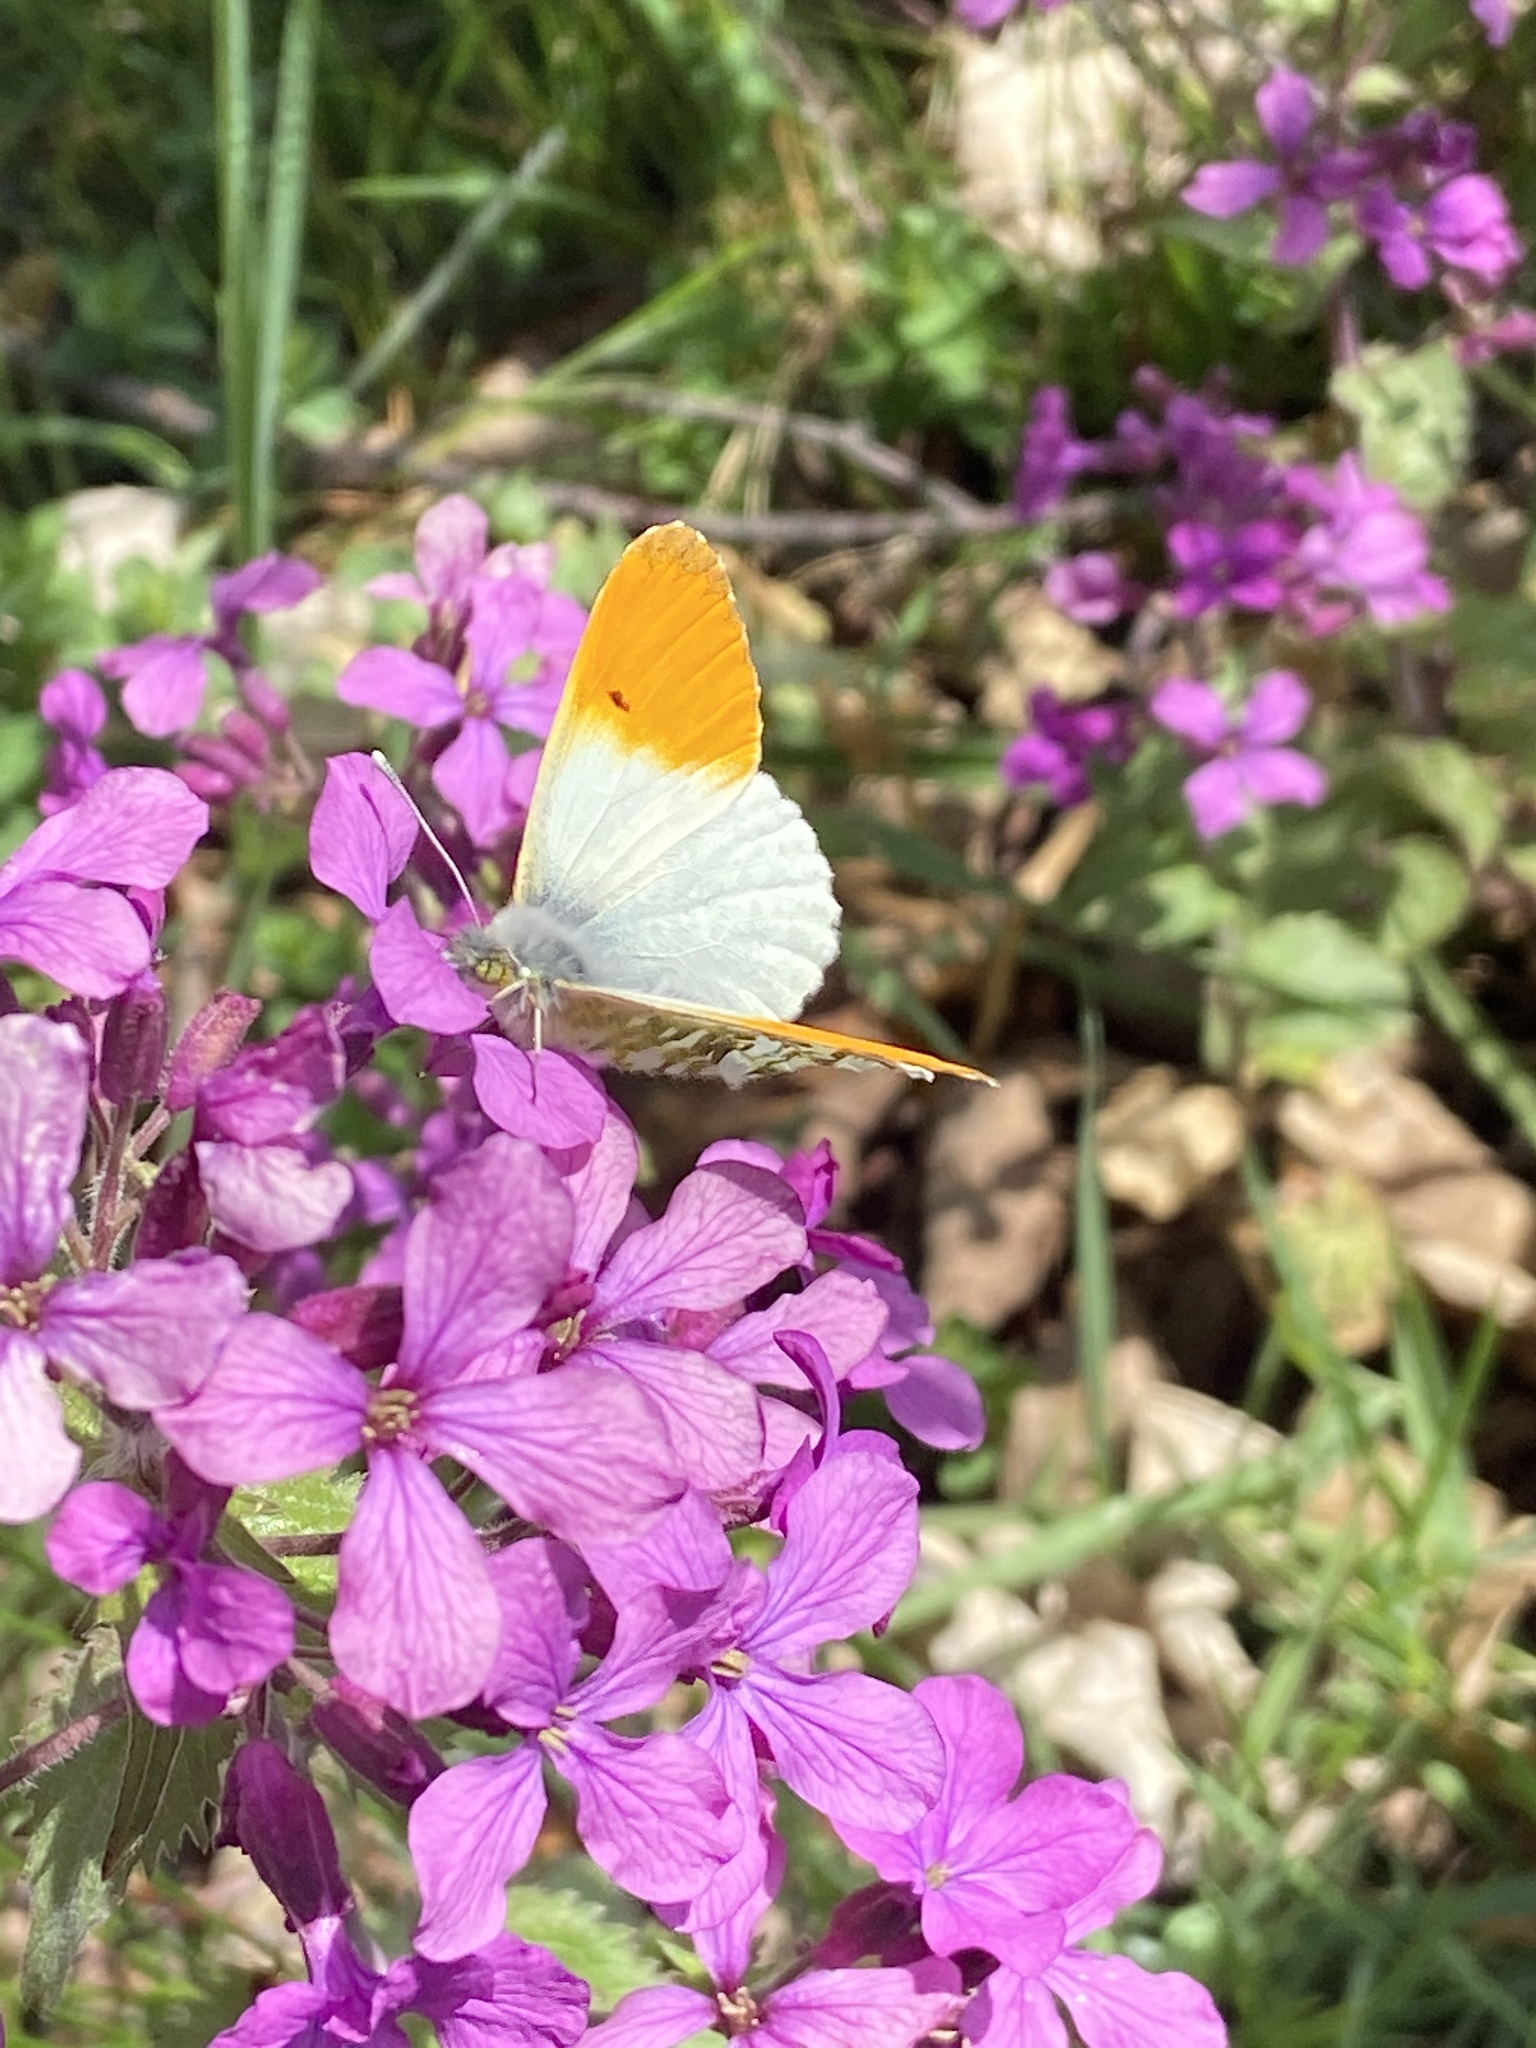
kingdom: Animalia
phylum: Arthropoda
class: Insecta
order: Lepidoptera
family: Pieridae
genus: Anthocharis
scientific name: Anthocharis cardamines
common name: Orange-tip
